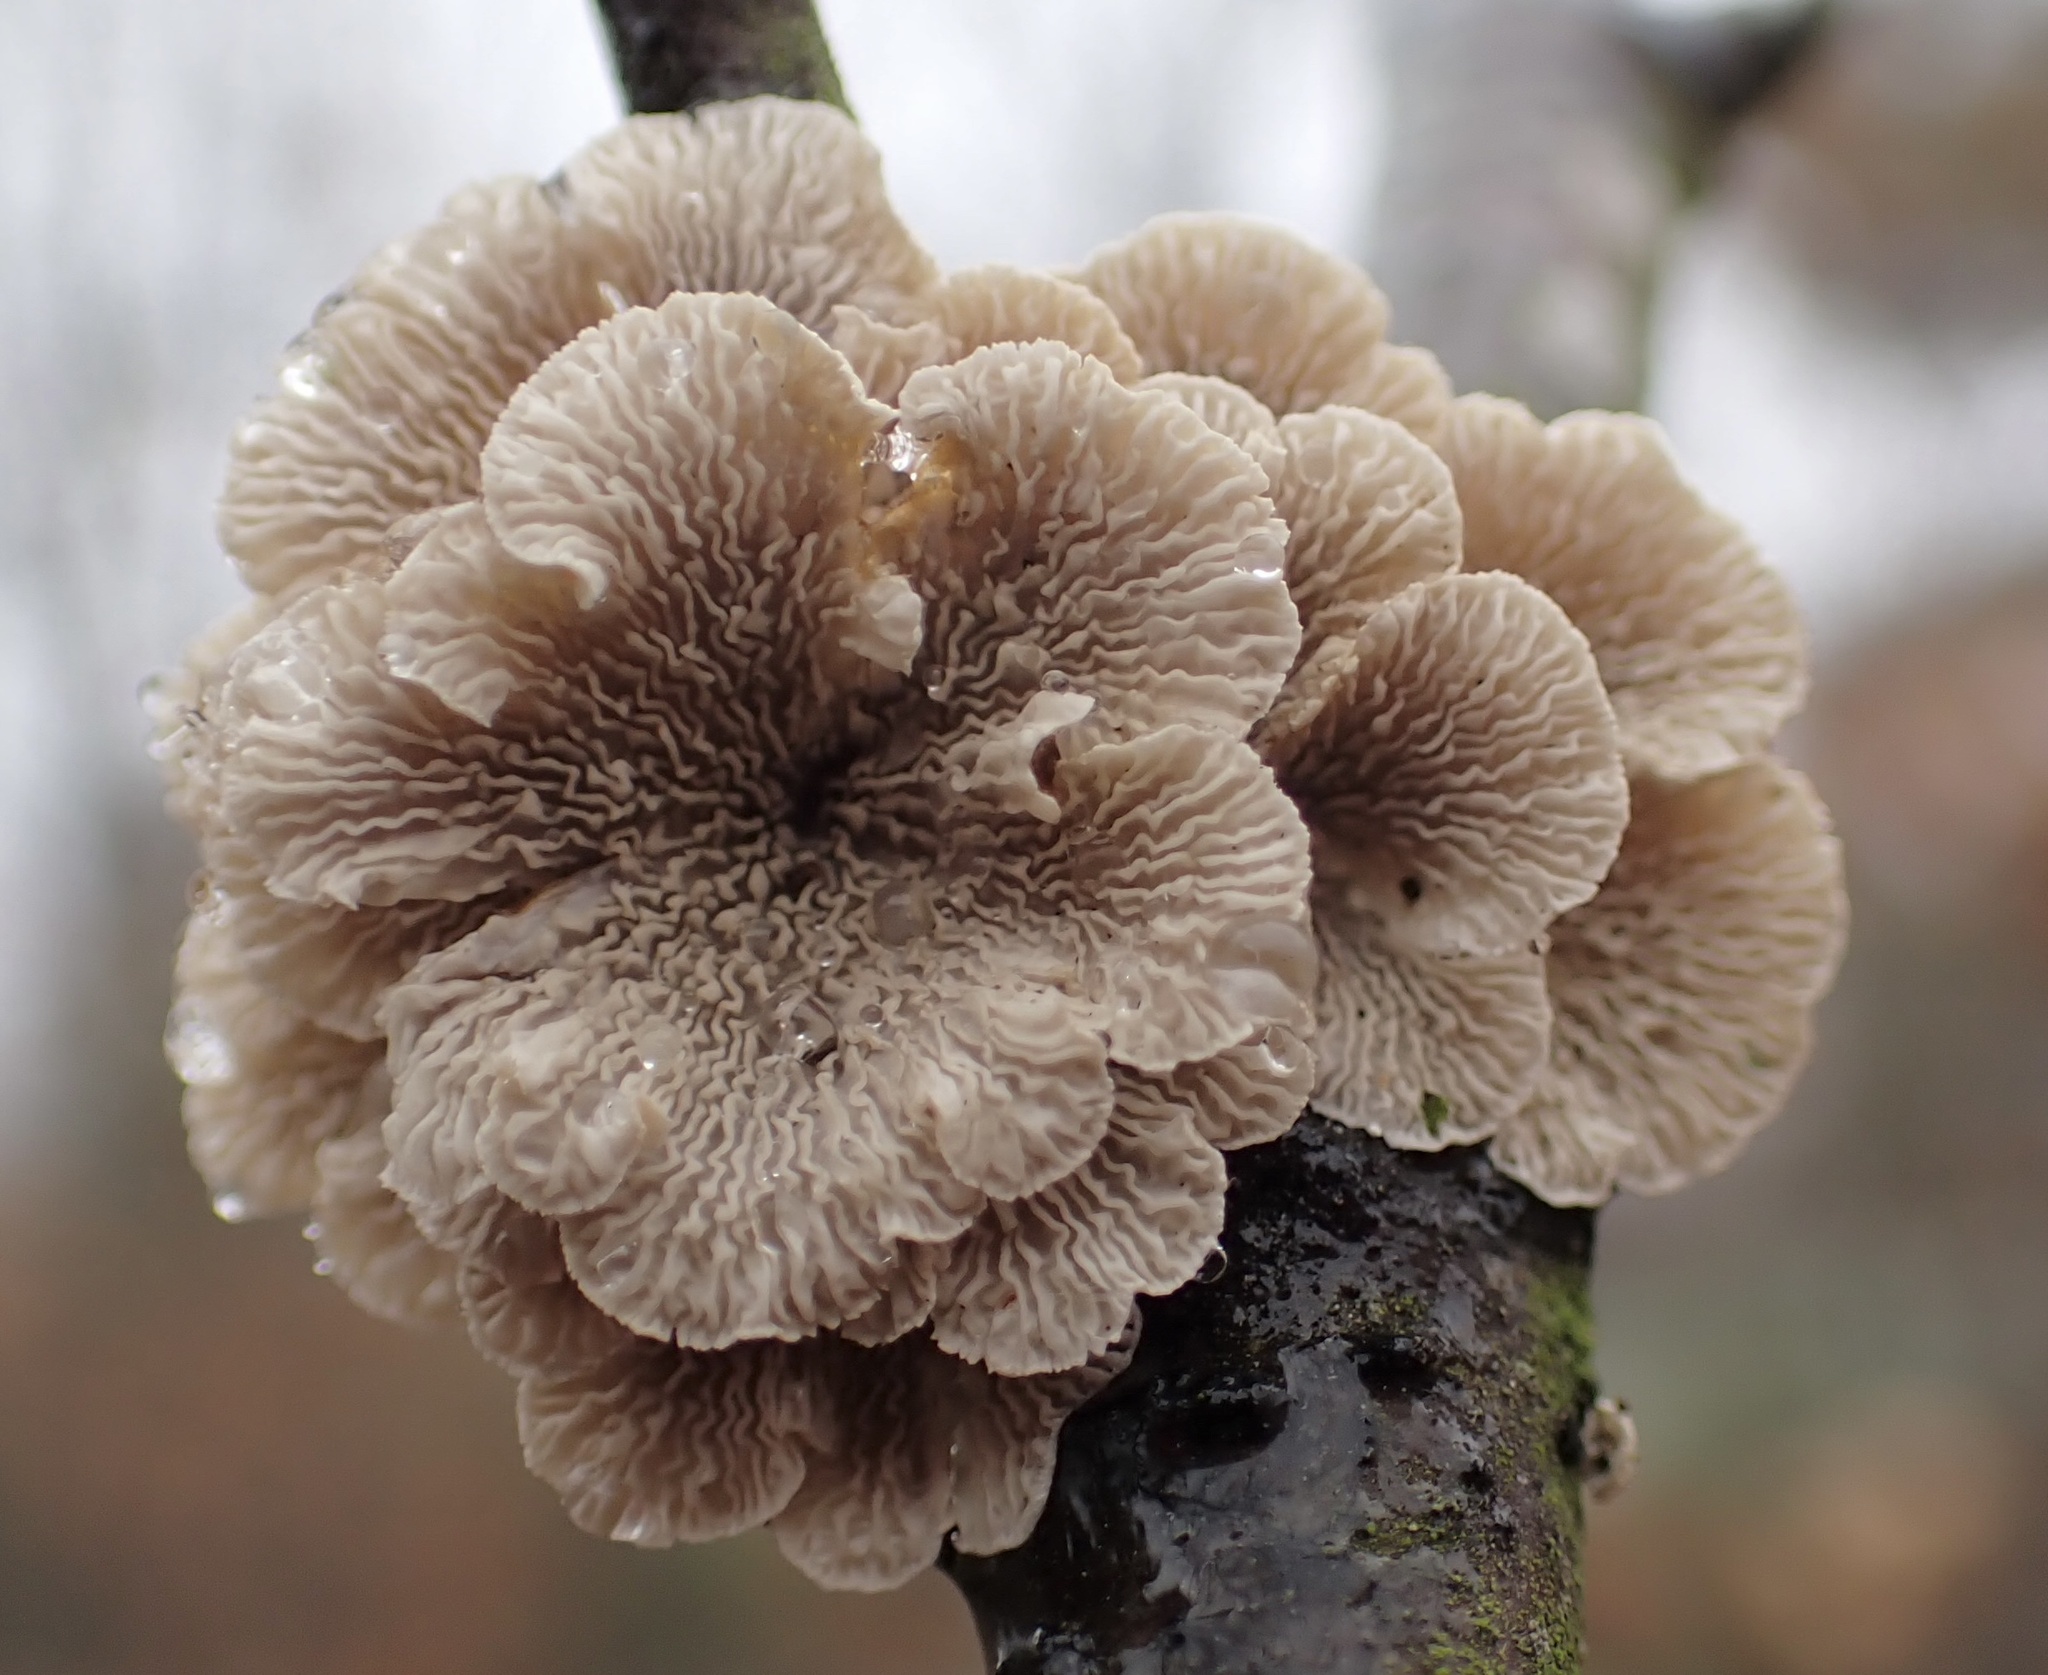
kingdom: Fungi
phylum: Basidiomycota
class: Agaricomycetes
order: Amylocorticiales
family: Amylocorticiaceae
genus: Plicaturopsis
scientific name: Plicaturopsis crispa
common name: Crimped gill
